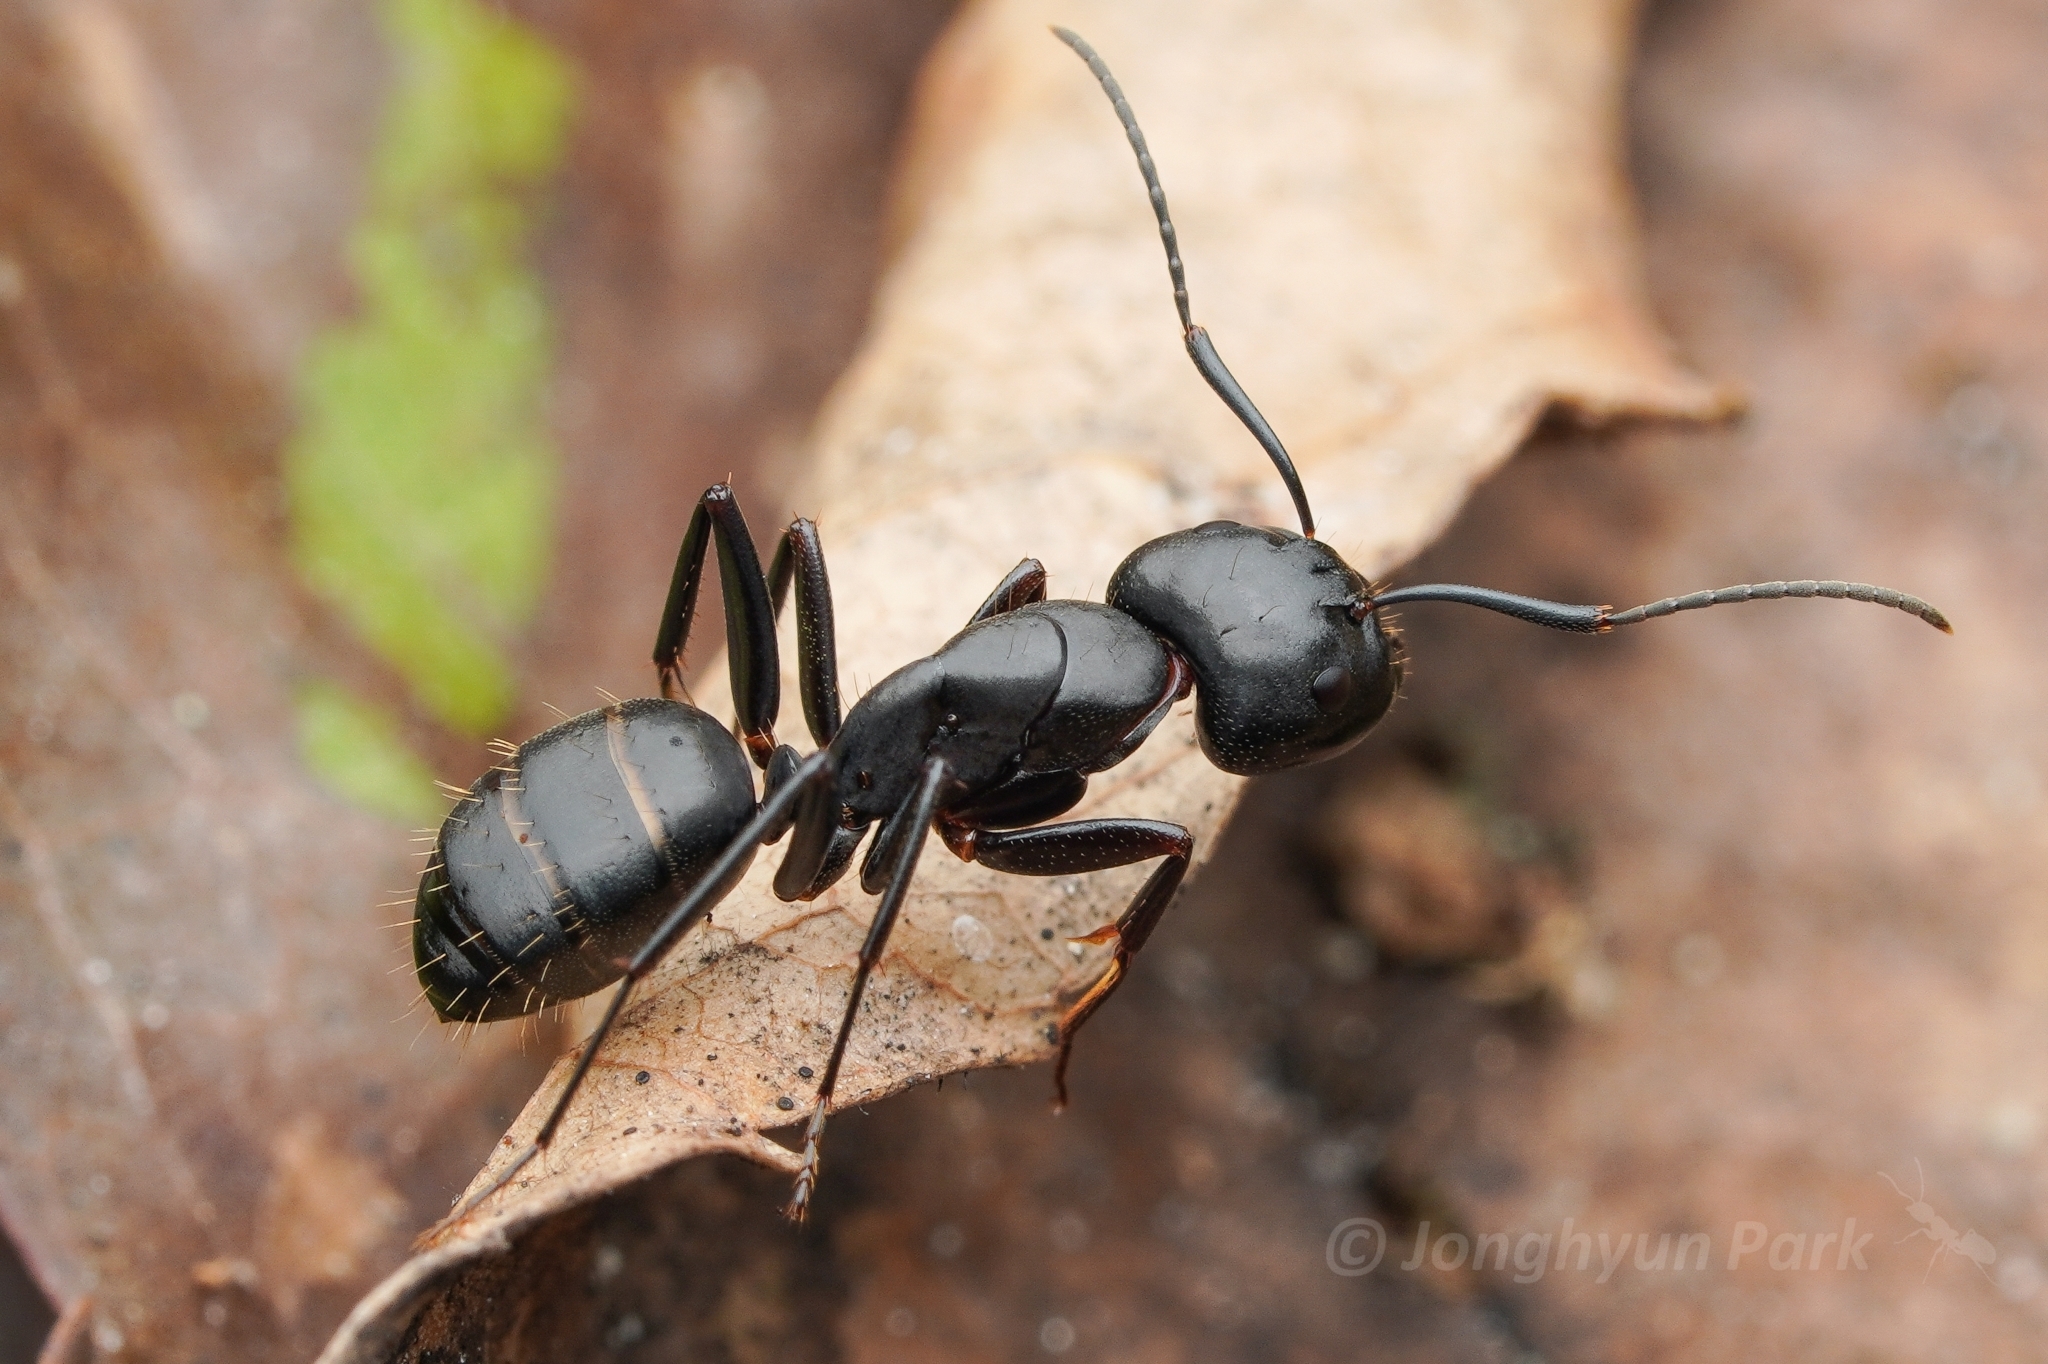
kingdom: Animalia
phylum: Arthropoda
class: Insecta
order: Hymenoptera
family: Formicidae
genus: Camponotus
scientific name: Camponotus concavus
